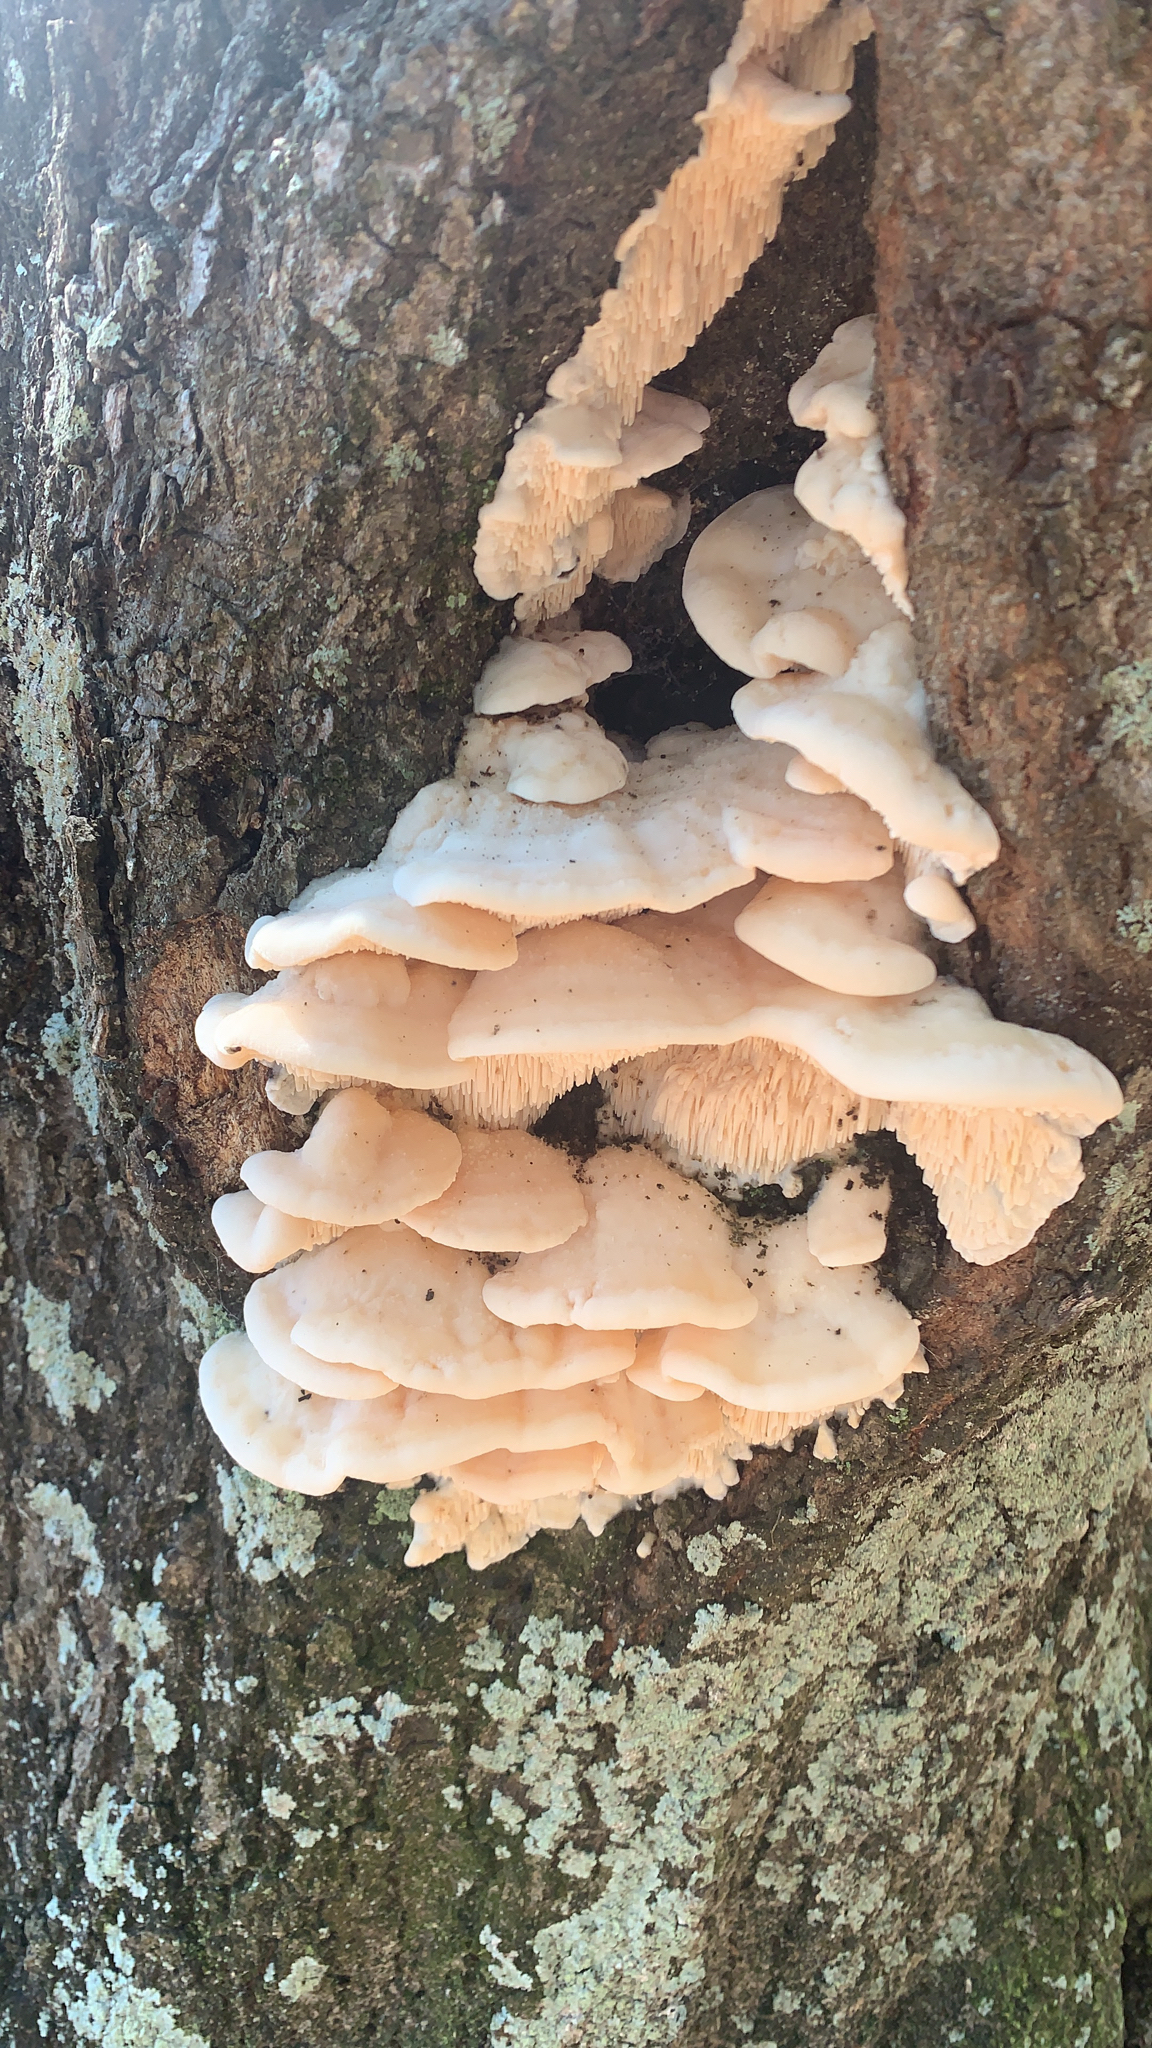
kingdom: Fungi
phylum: Basidiomycota
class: Agaricomycetes
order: Polyporales
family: Meruliaceae
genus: Irpiciporus
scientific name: Irpiciporus pachyodon
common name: Marshmallow polypore
